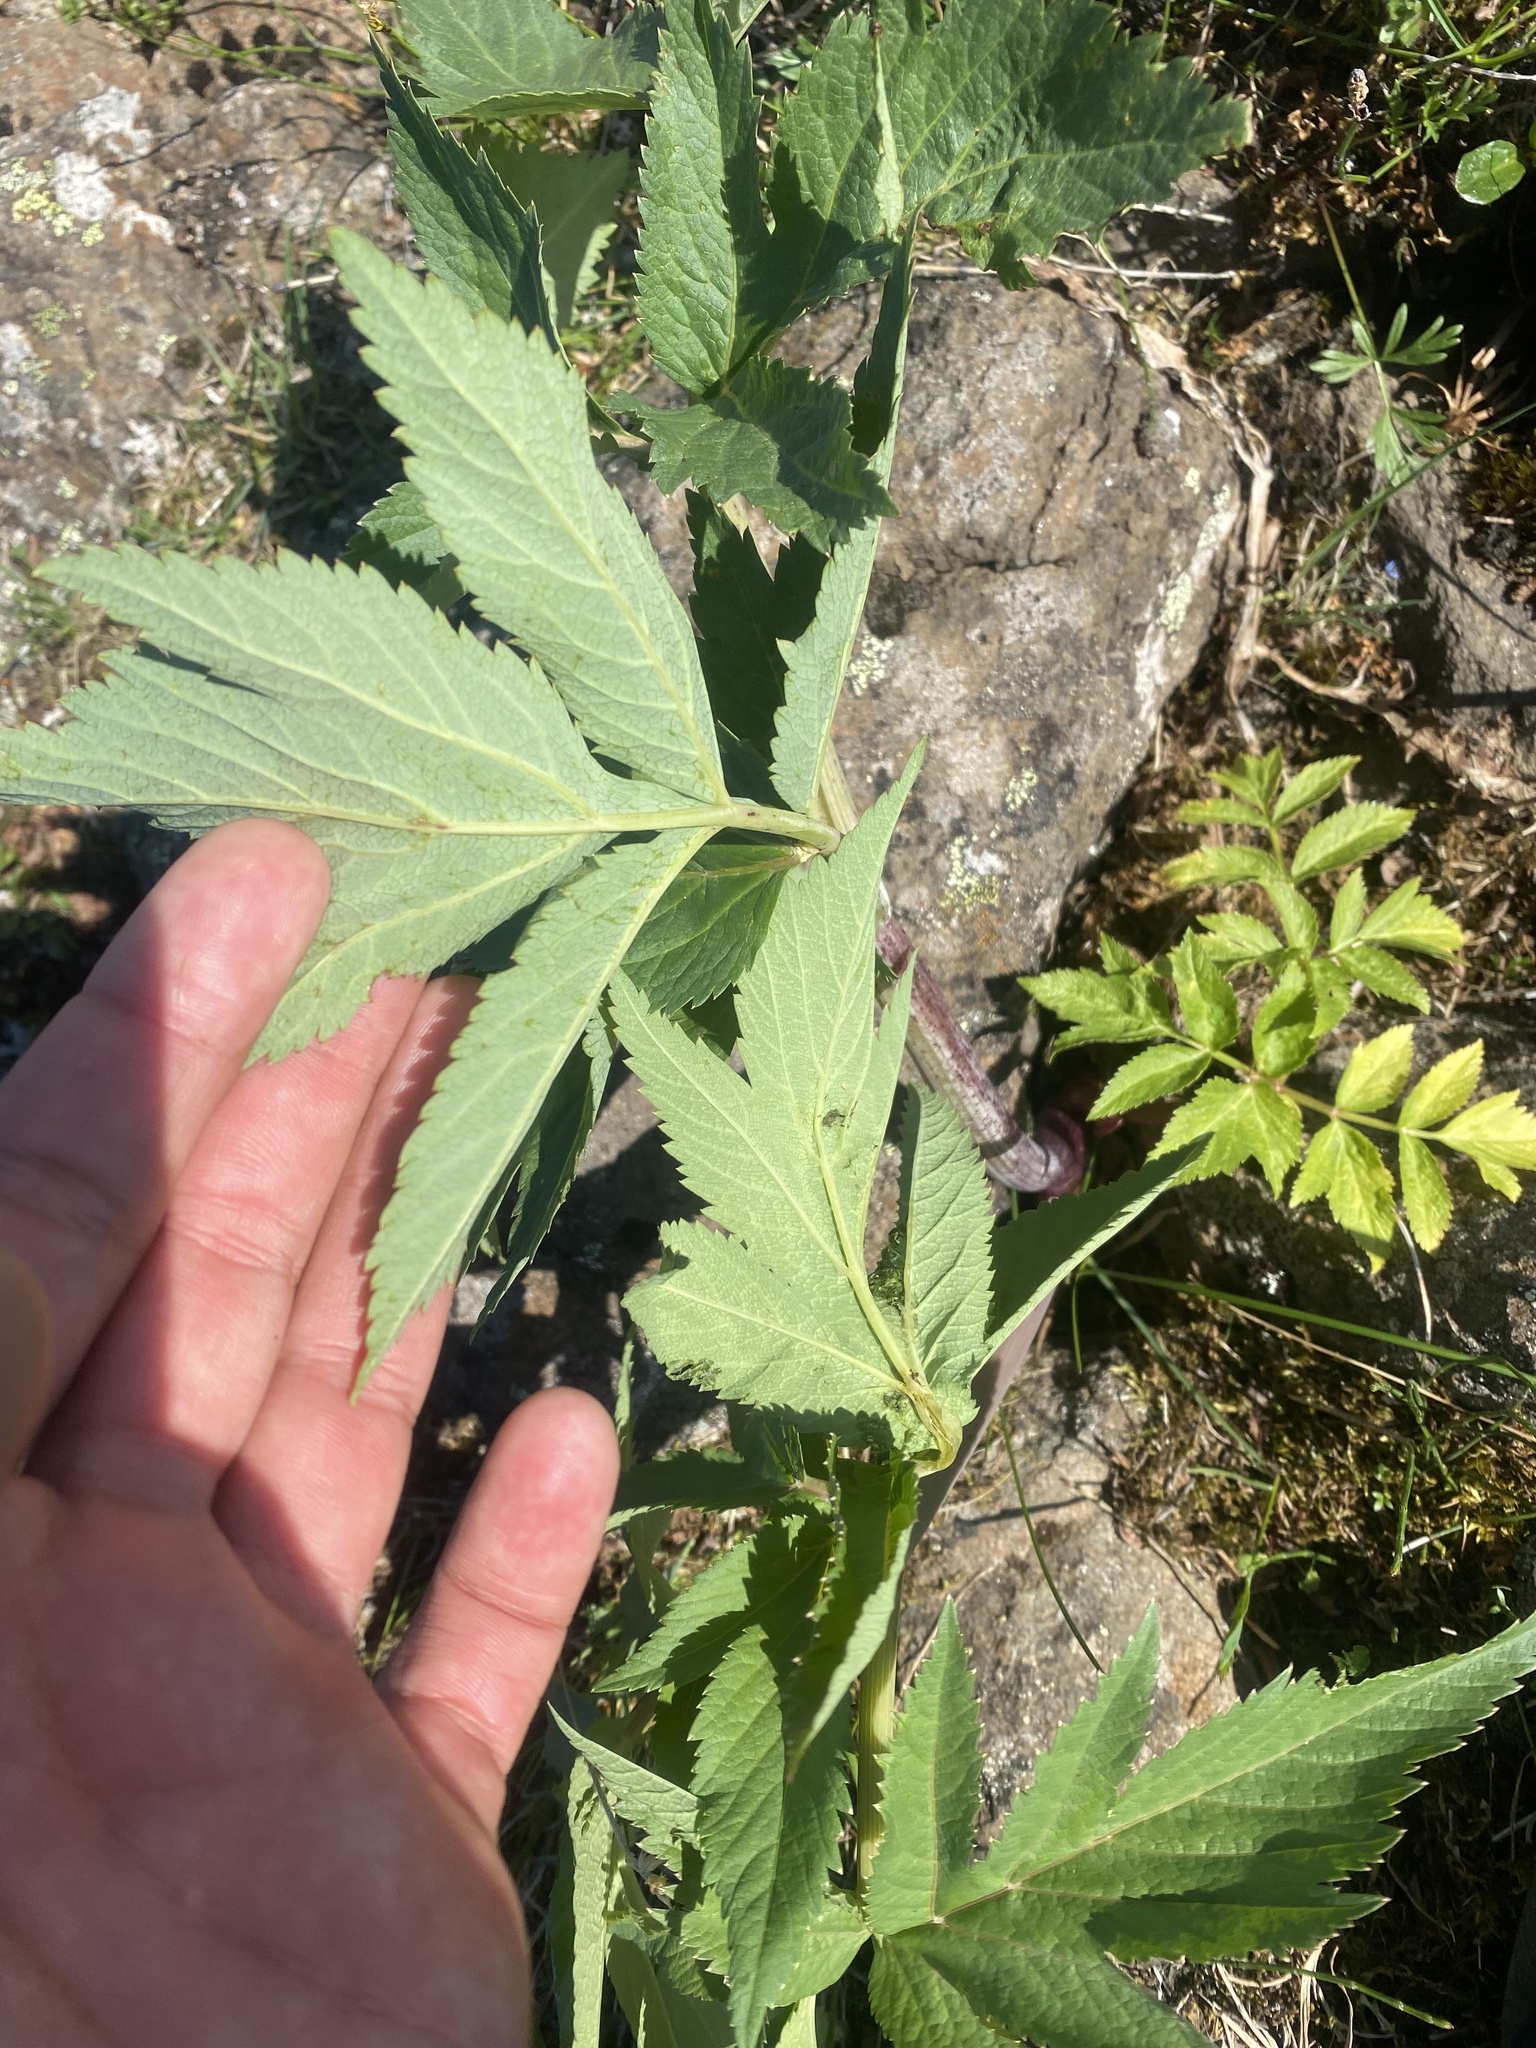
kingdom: Plantae
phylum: Tracheophyta
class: Magnoliopsida
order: Apiales
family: Apiaceae
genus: Angelica
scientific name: Angelica decurrens
